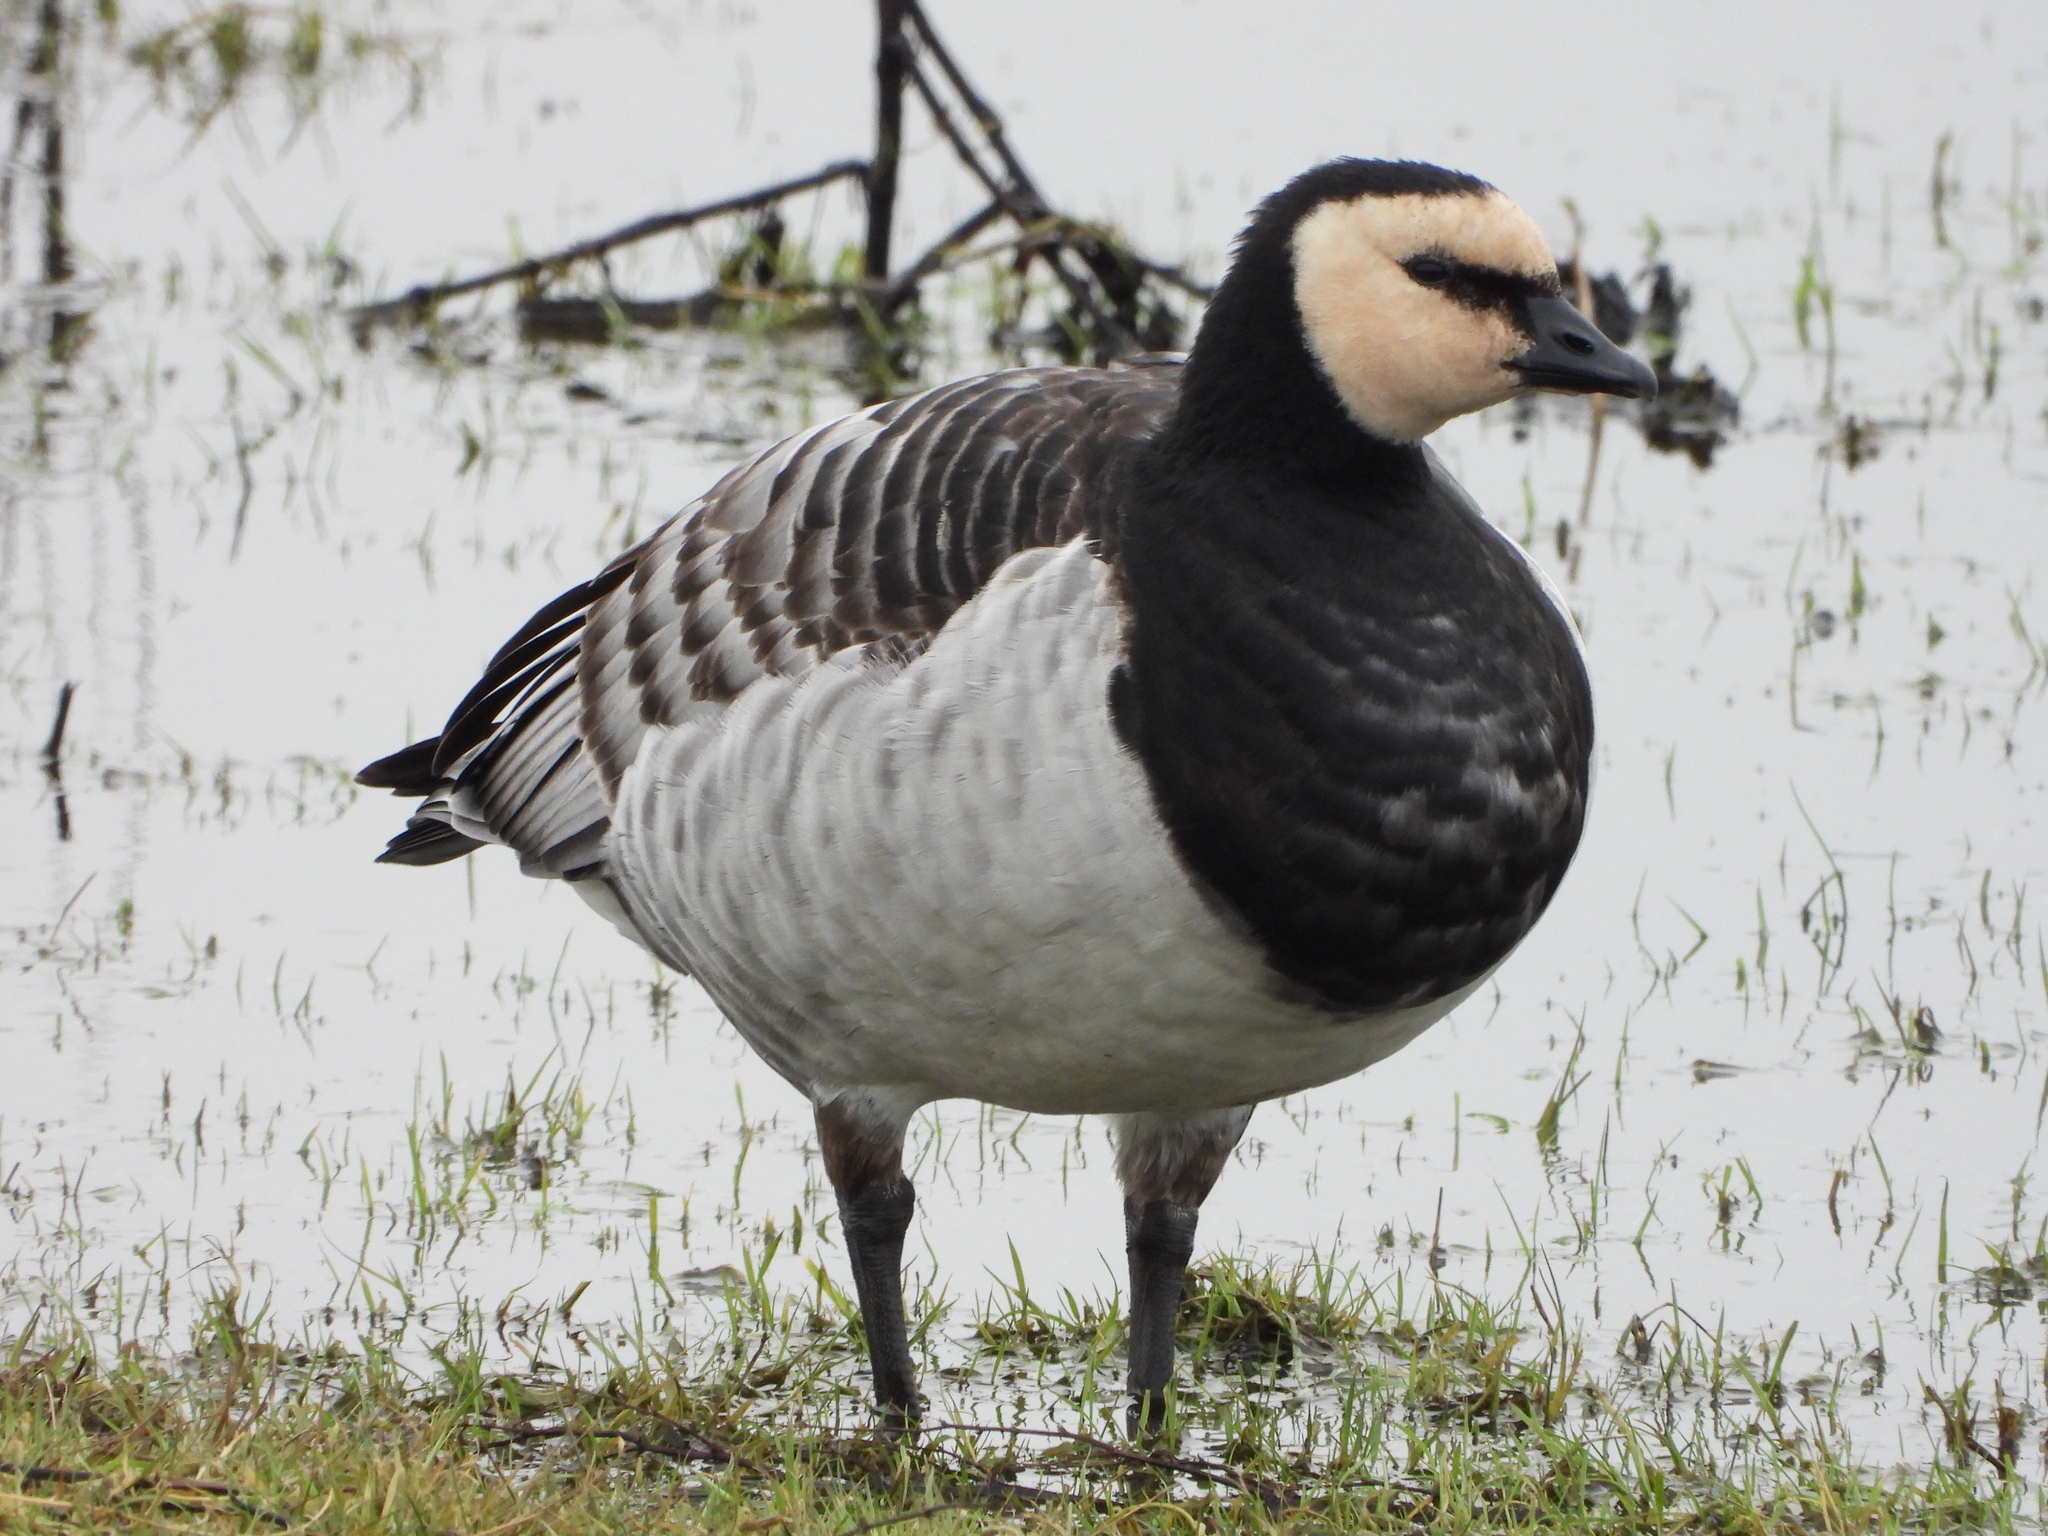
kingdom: Animalia
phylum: Chordata
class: Aves
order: Anseriformes
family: Anatidae
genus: Branta
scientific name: Branta leucopsis
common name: Barnacle goose
